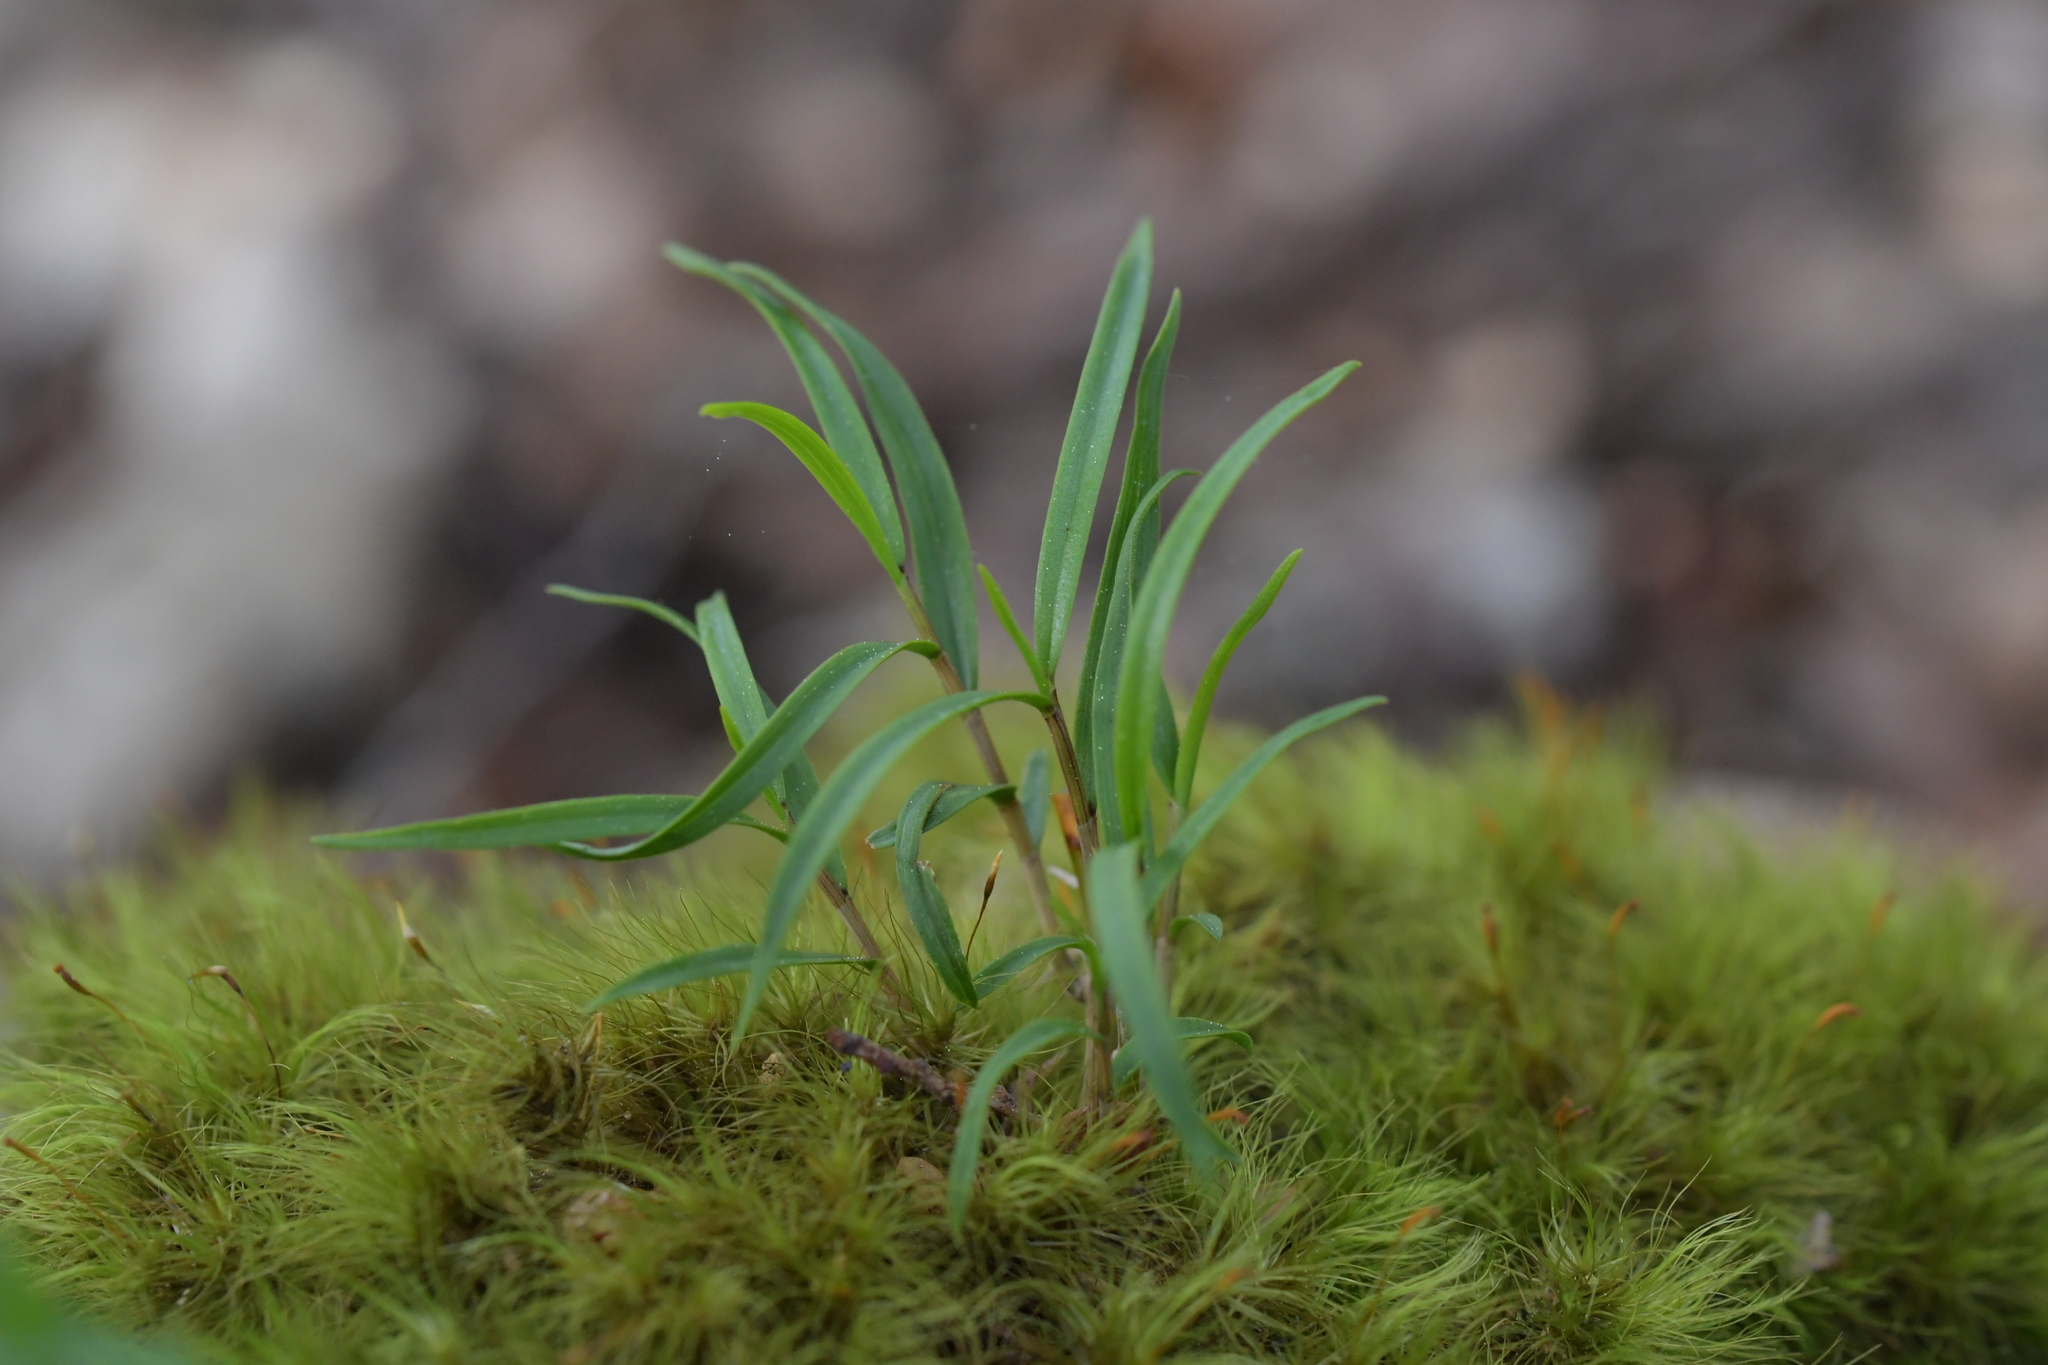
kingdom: Plantae
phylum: Tracheophyta
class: Liliopsida
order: Asparagales
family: Orchidaceae
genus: Dendrobium
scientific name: Dendrobium cunninghamii
